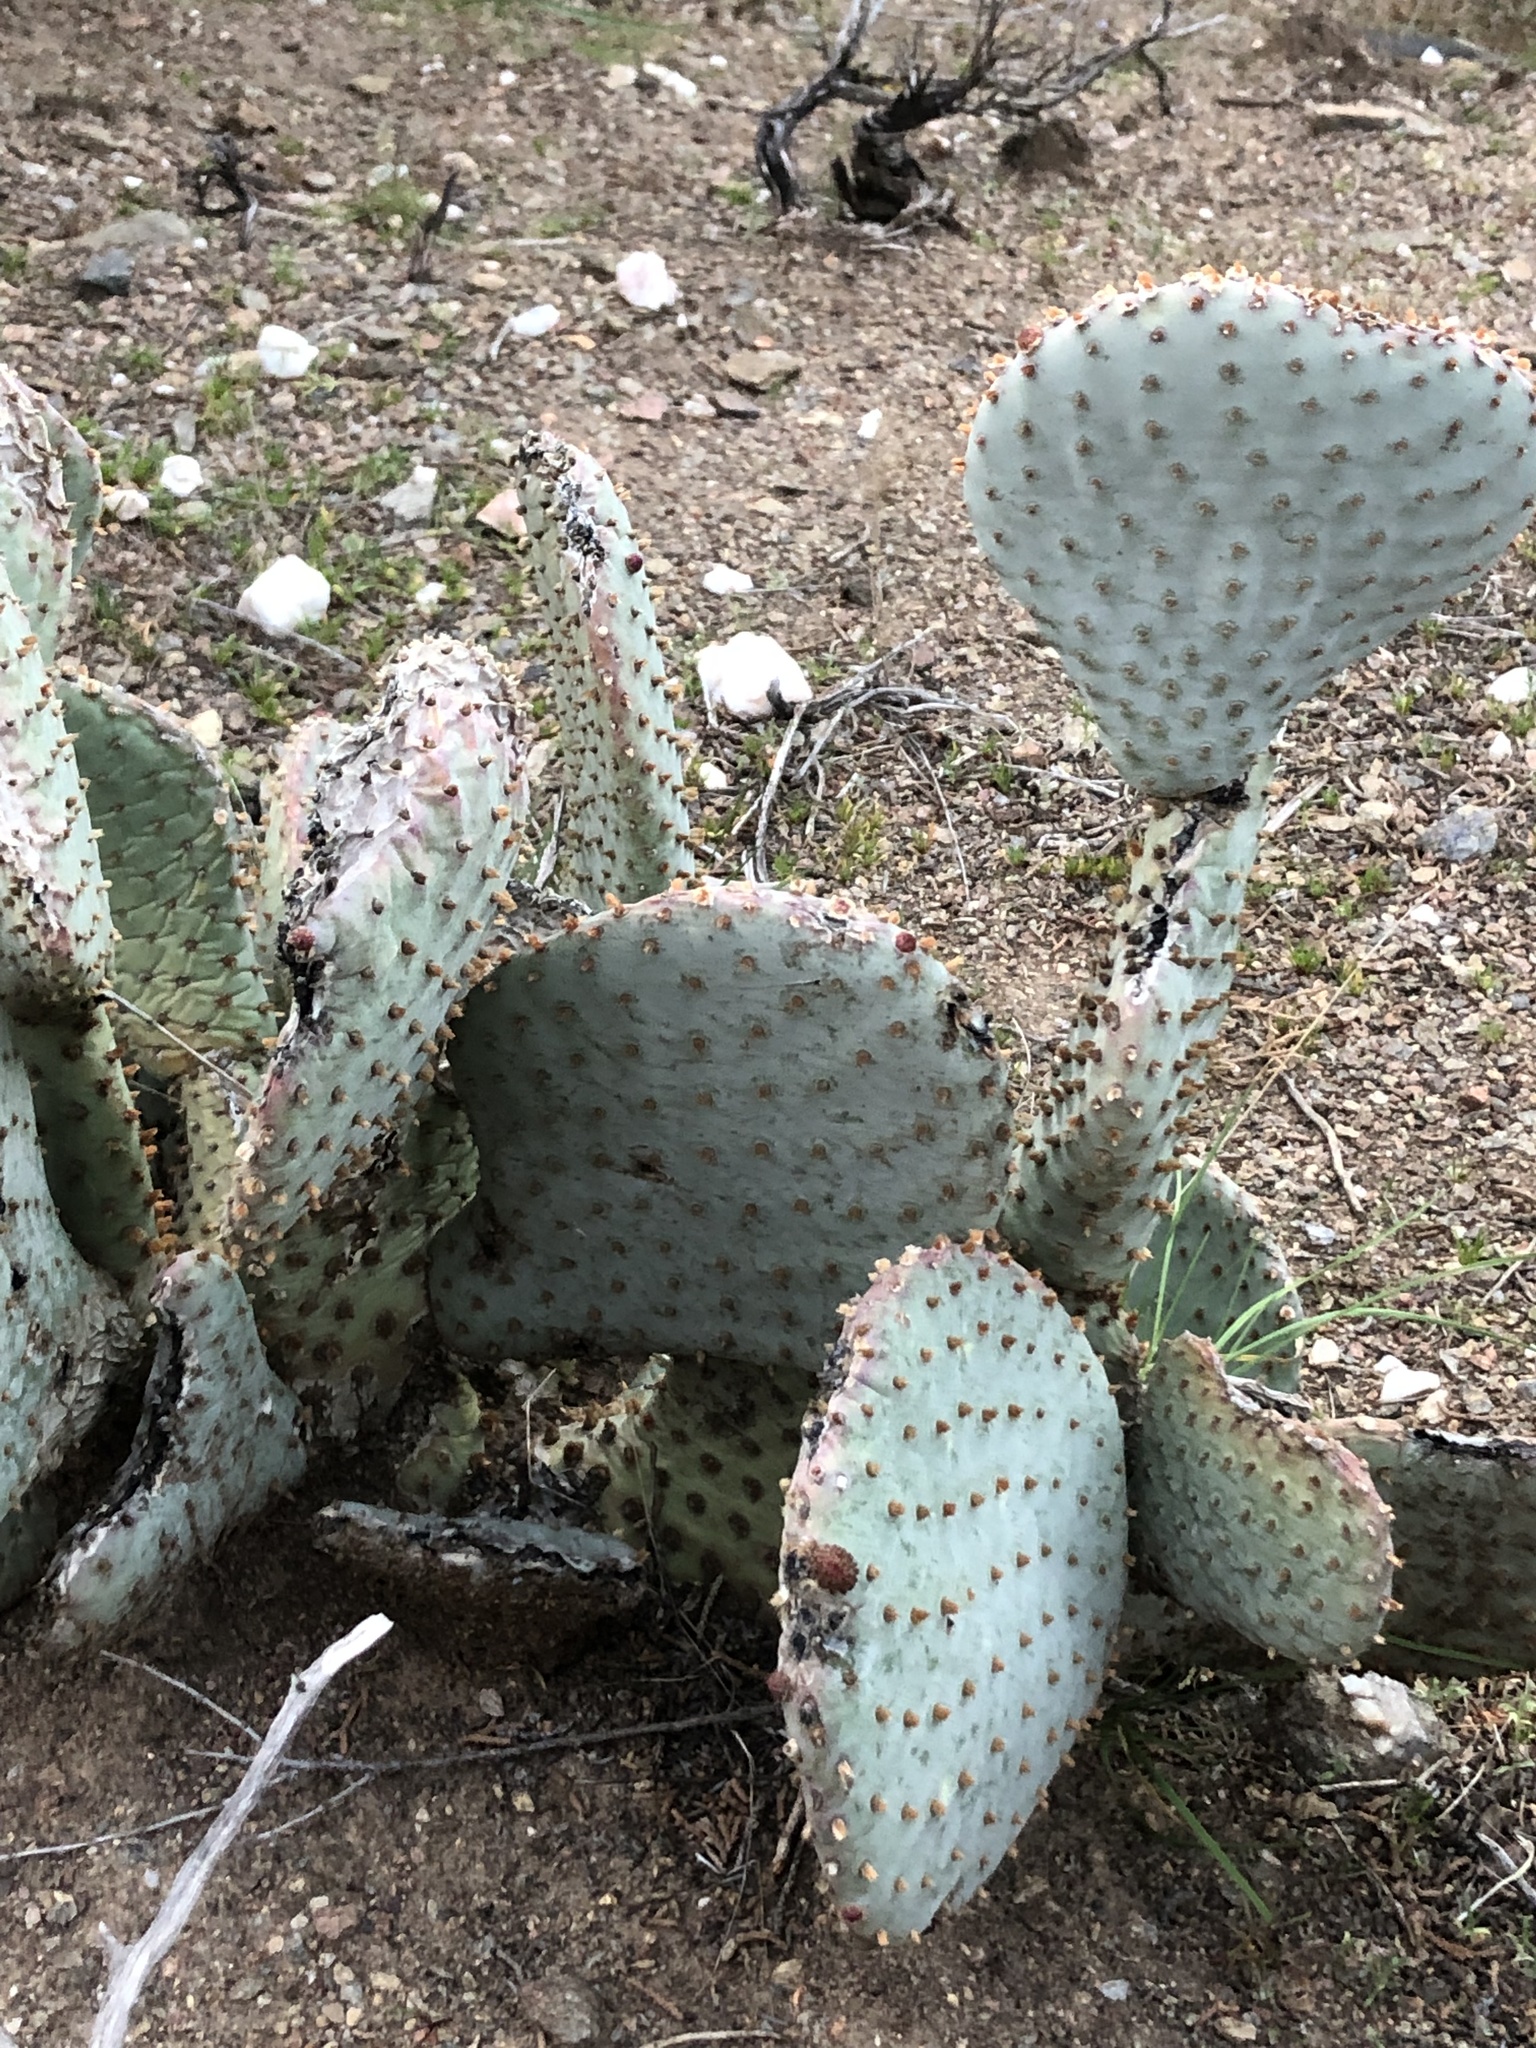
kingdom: Plantae
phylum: Tracheophyta
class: Magnoliopsida
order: Caryophyllales
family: Cactaceae
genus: Opuntia
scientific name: Opuntia basilaris
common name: Beavertail prickly-pear
